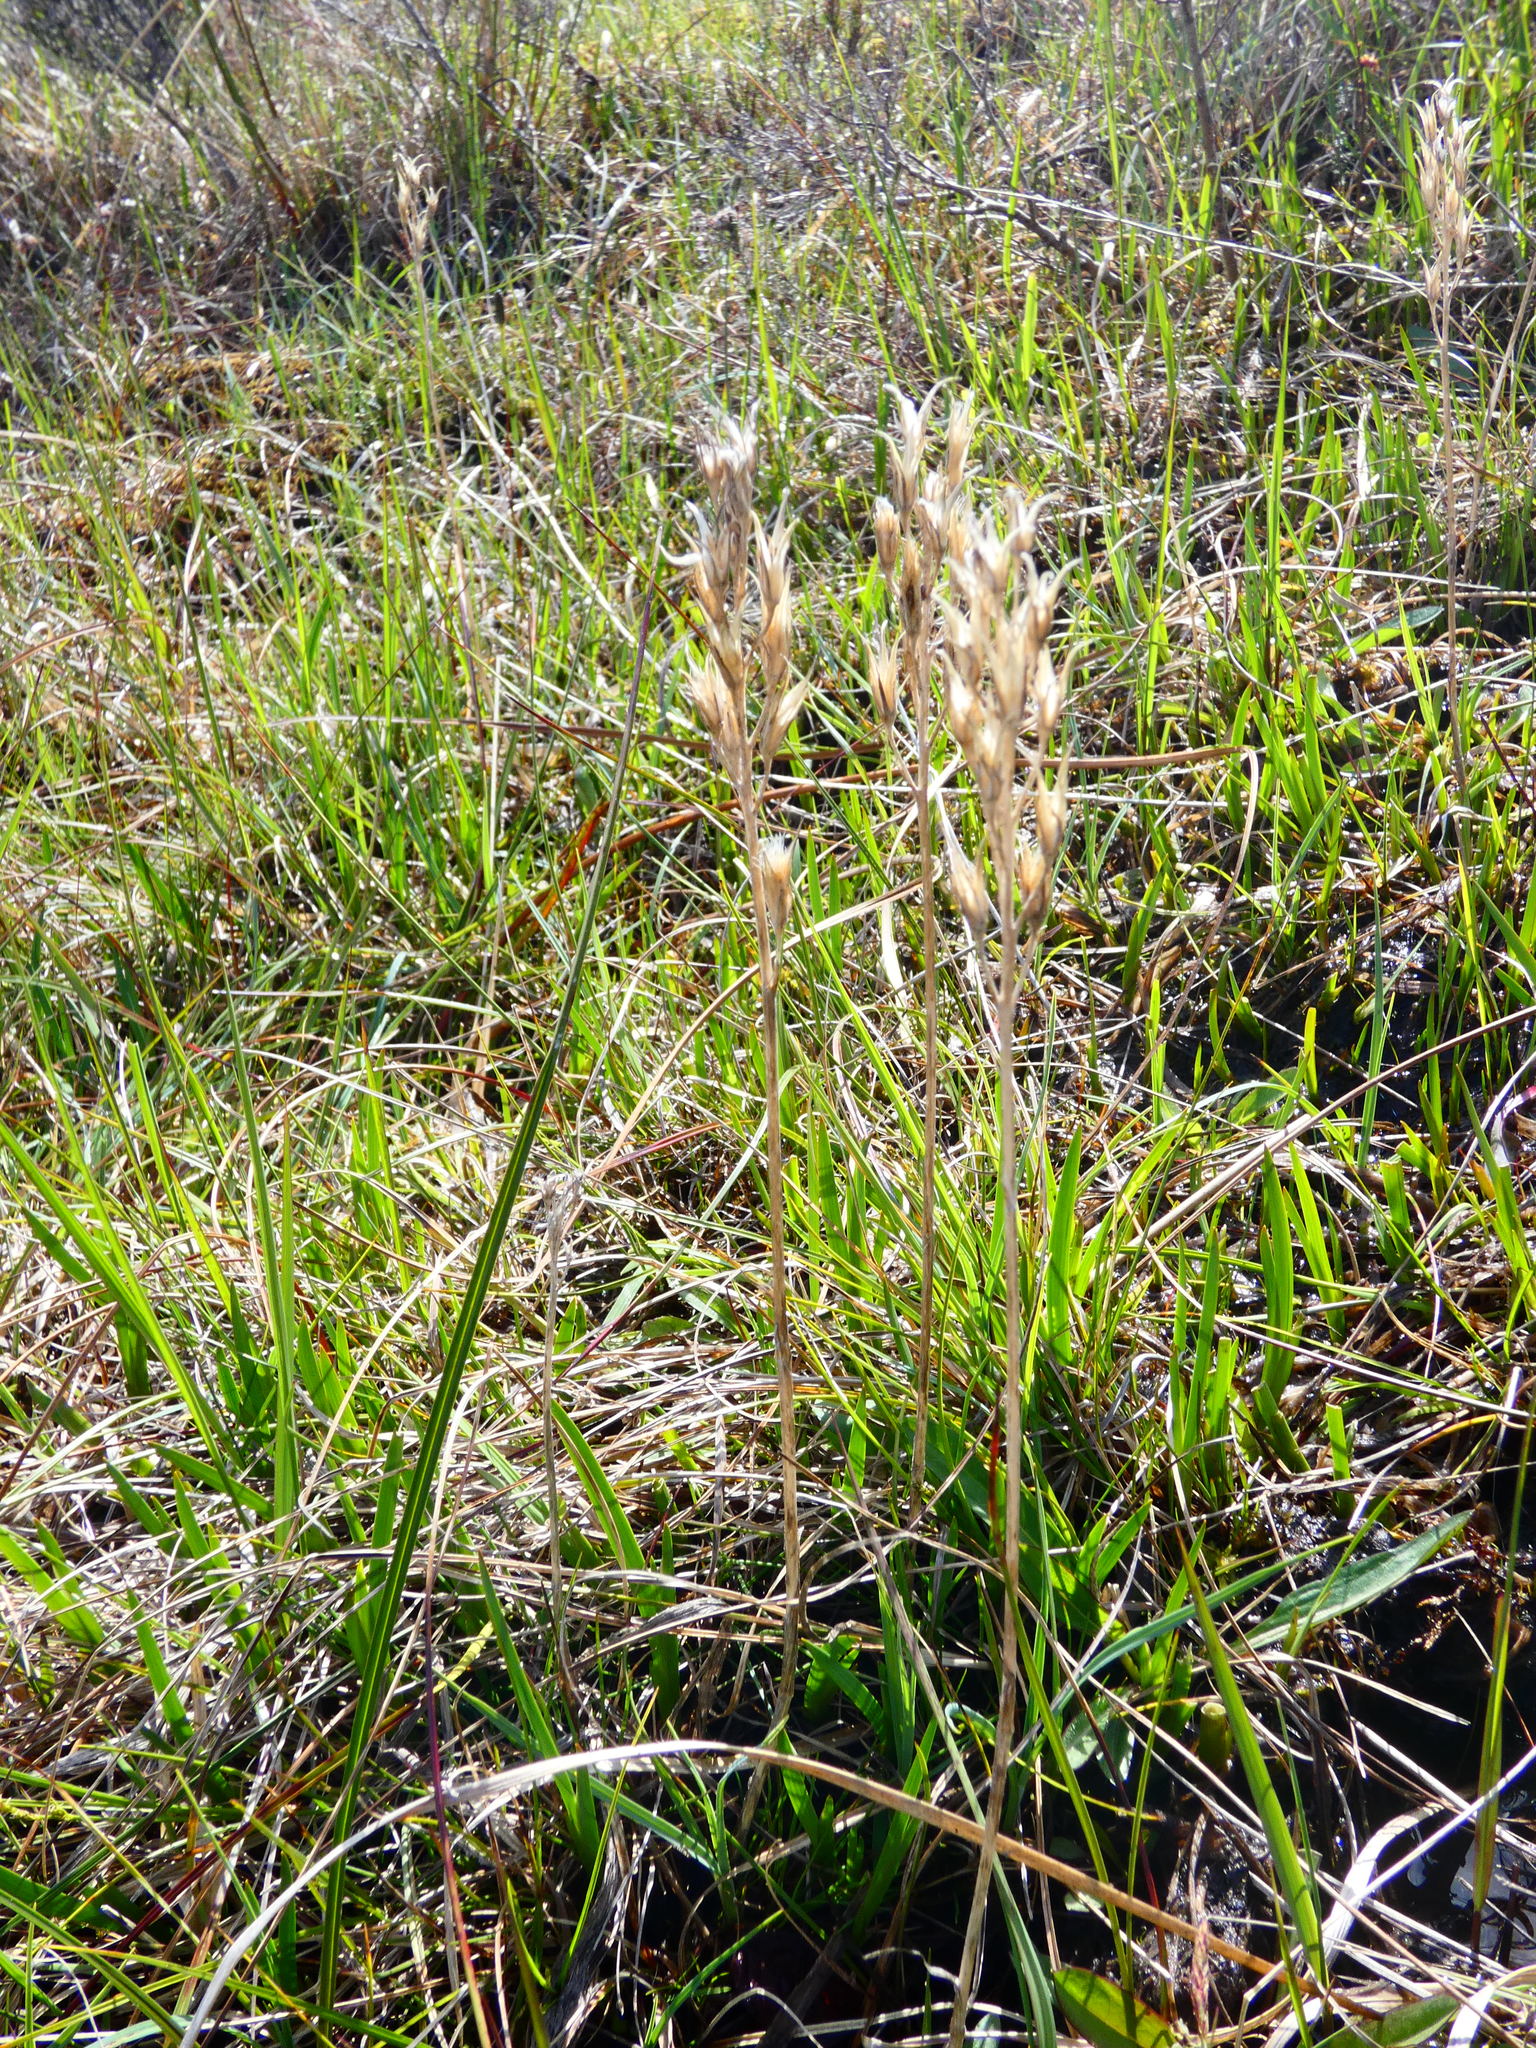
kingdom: Plantae
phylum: Tracheophyta
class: Liliopsida
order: Dioscoreales
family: Nartheciaceae
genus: Narthecium
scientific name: Narthecium ossifragum
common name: Bog asphodel
